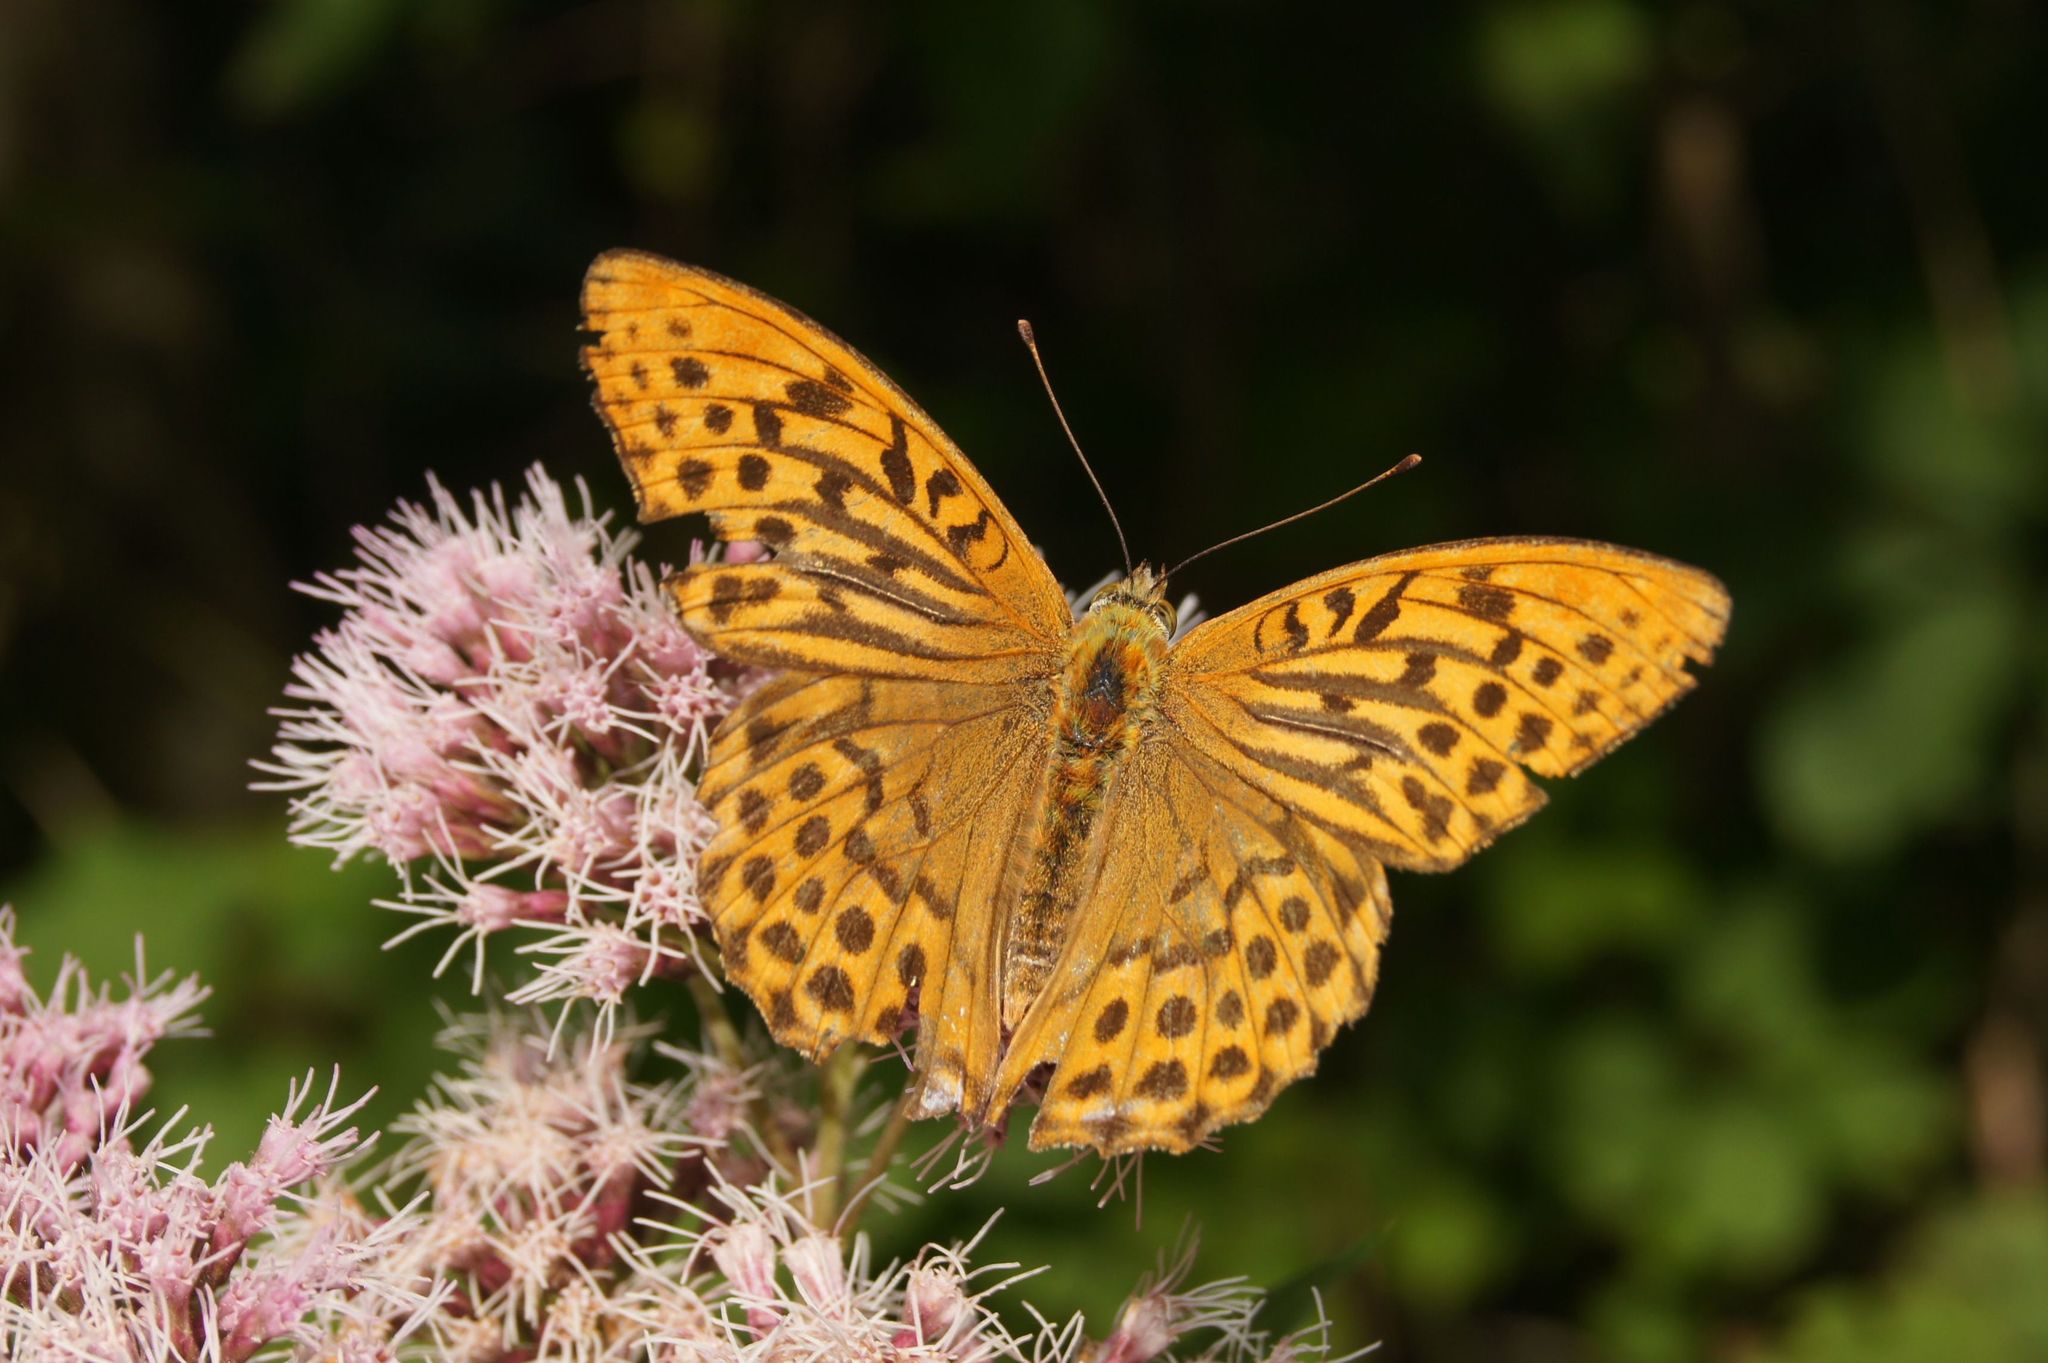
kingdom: Animalia
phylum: Arthropoda
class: Insecta
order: Lepidoptera
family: Nymphalidae
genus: Argynnis
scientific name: Argynnis paphia
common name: Silver-washed fritillary
